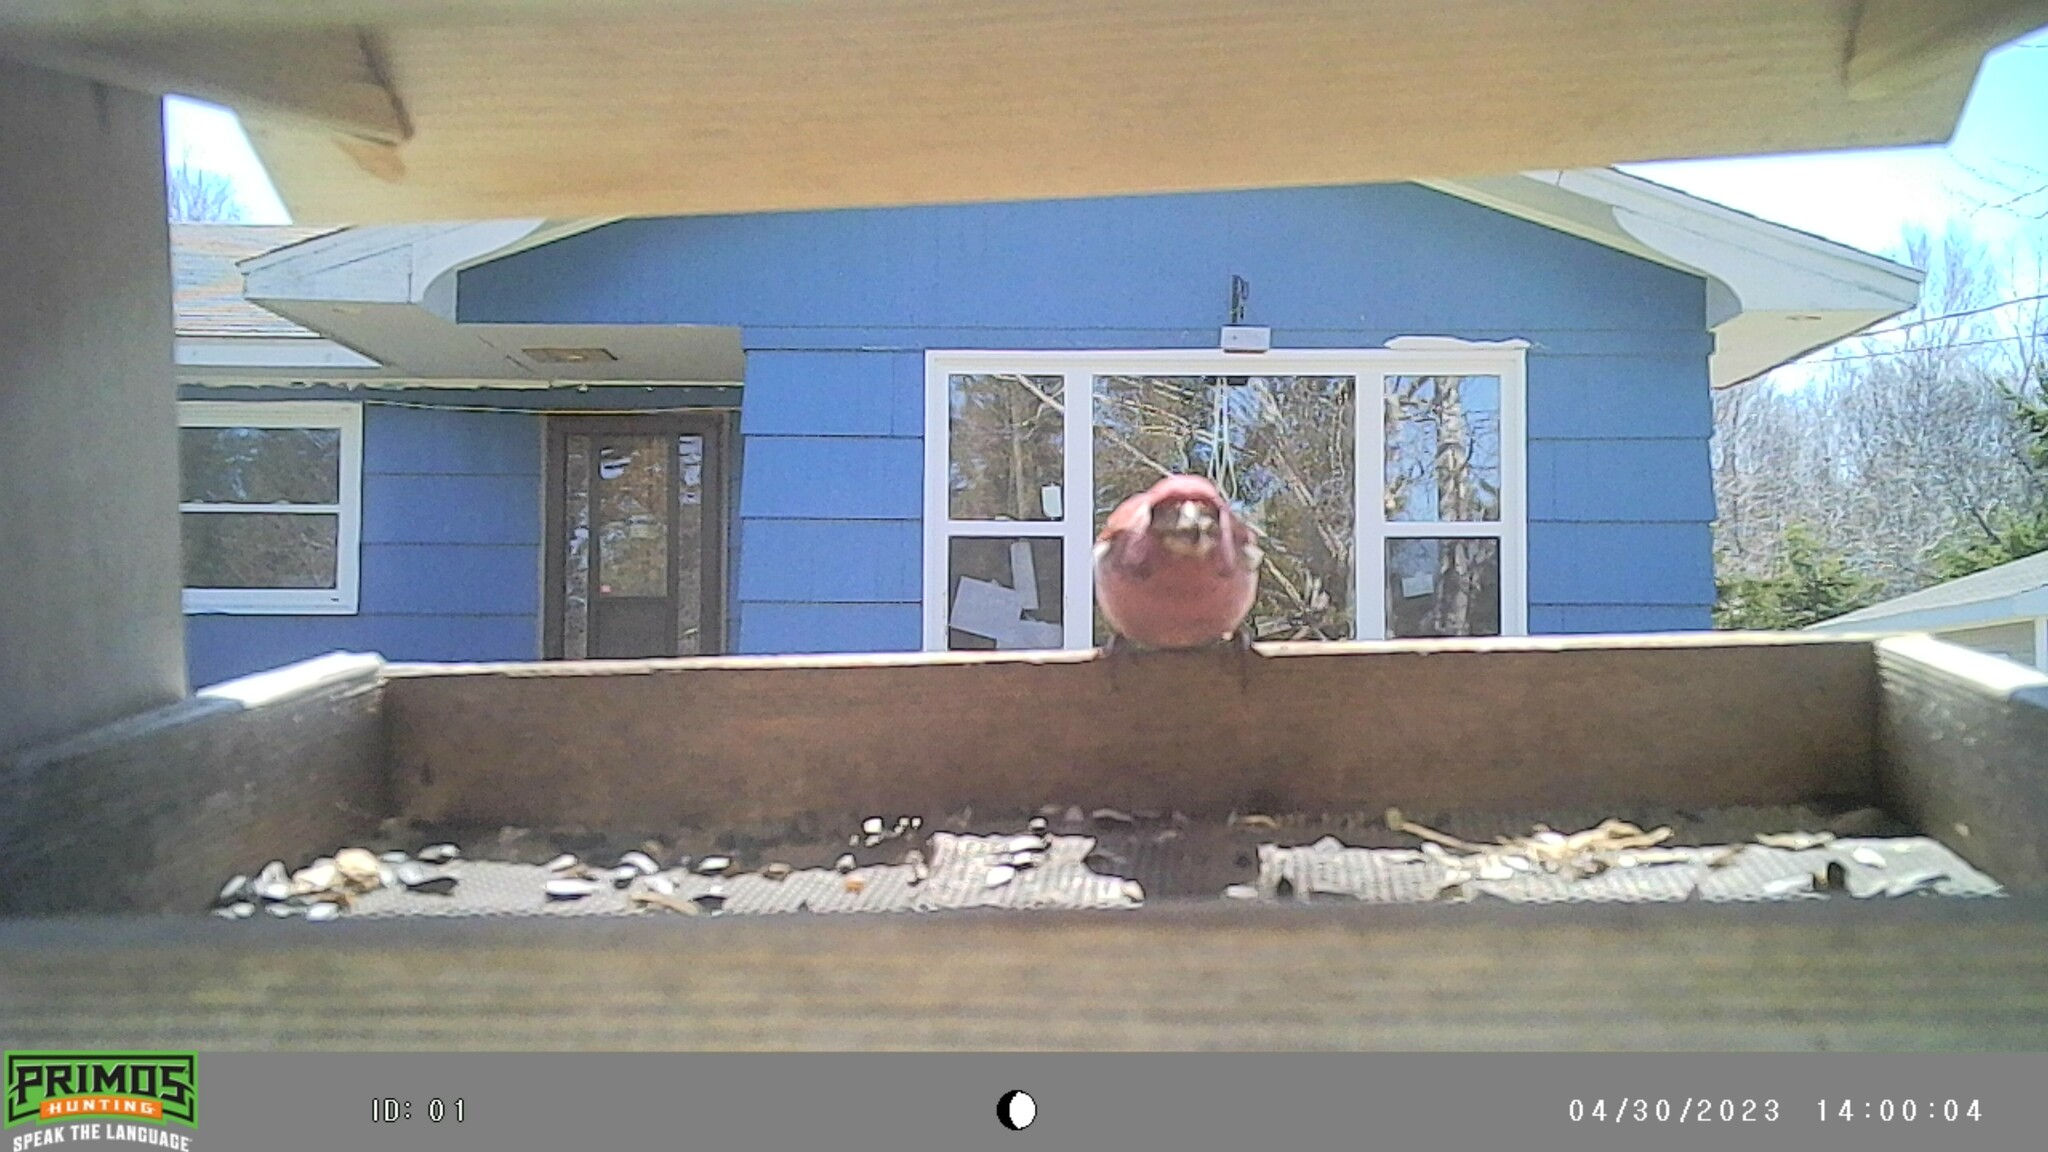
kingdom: Animalia
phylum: Chordata
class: Aves
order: Passeriformes
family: Fringillidae
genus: Haemorhous
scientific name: Haemorhous purpureus
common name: Purple finch
